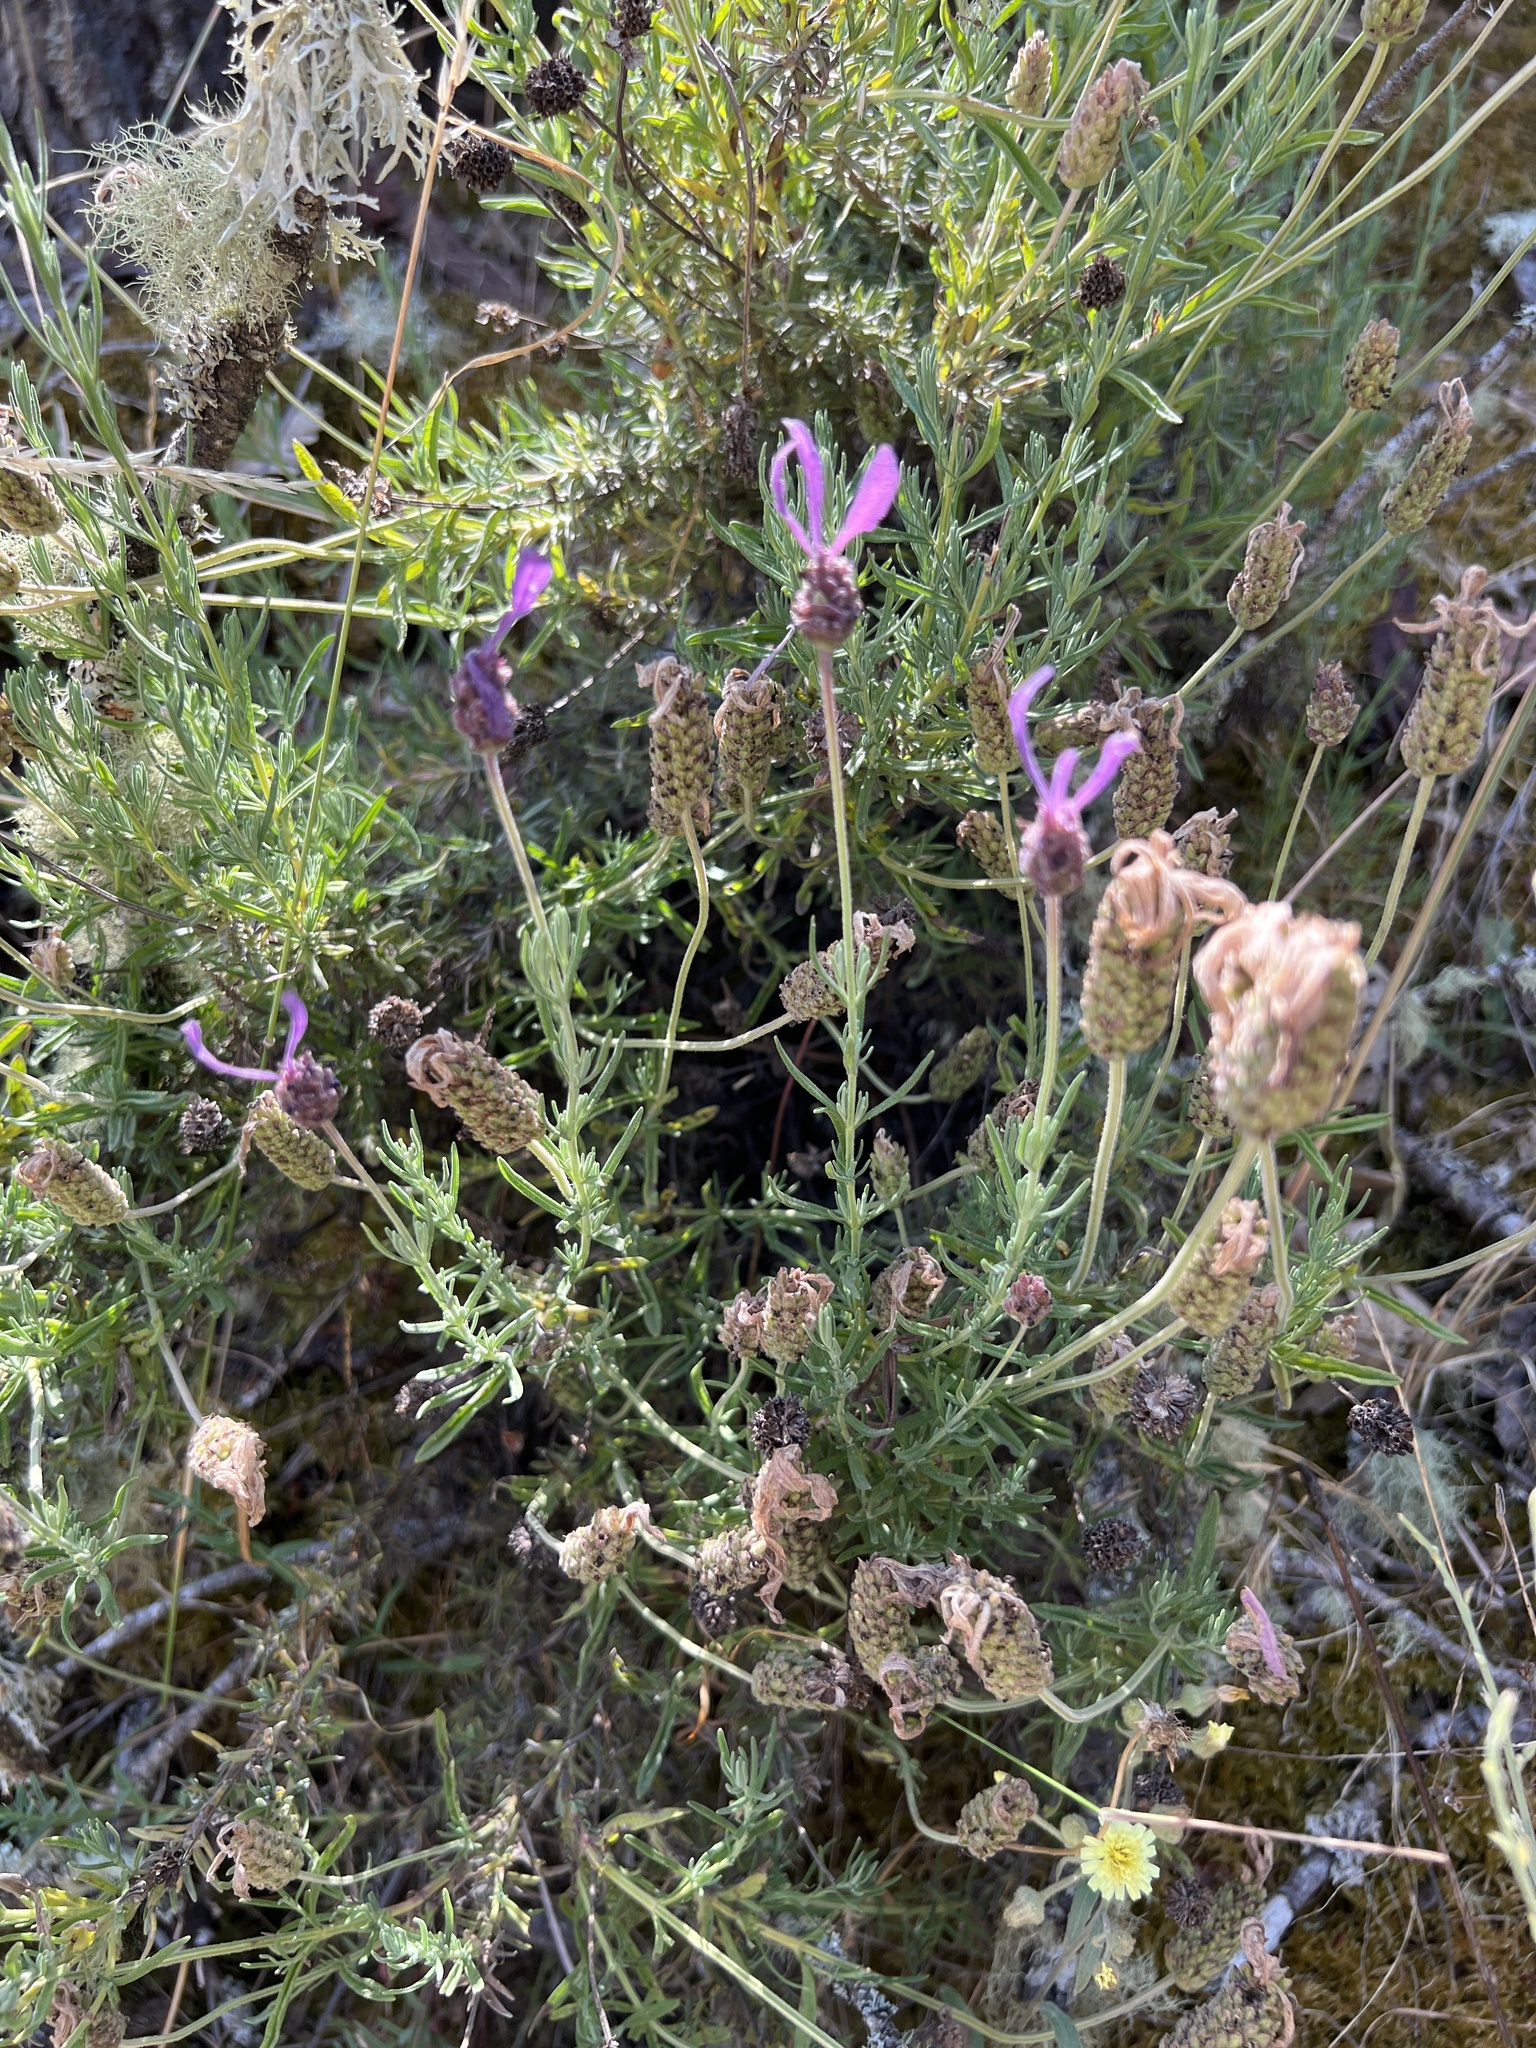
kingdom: Plantae
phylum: Tracheophyta
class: Magnoliopsida
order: Lamiales
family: Lamiaceae
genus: Lavandula
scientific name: Lavandula pedunculata
